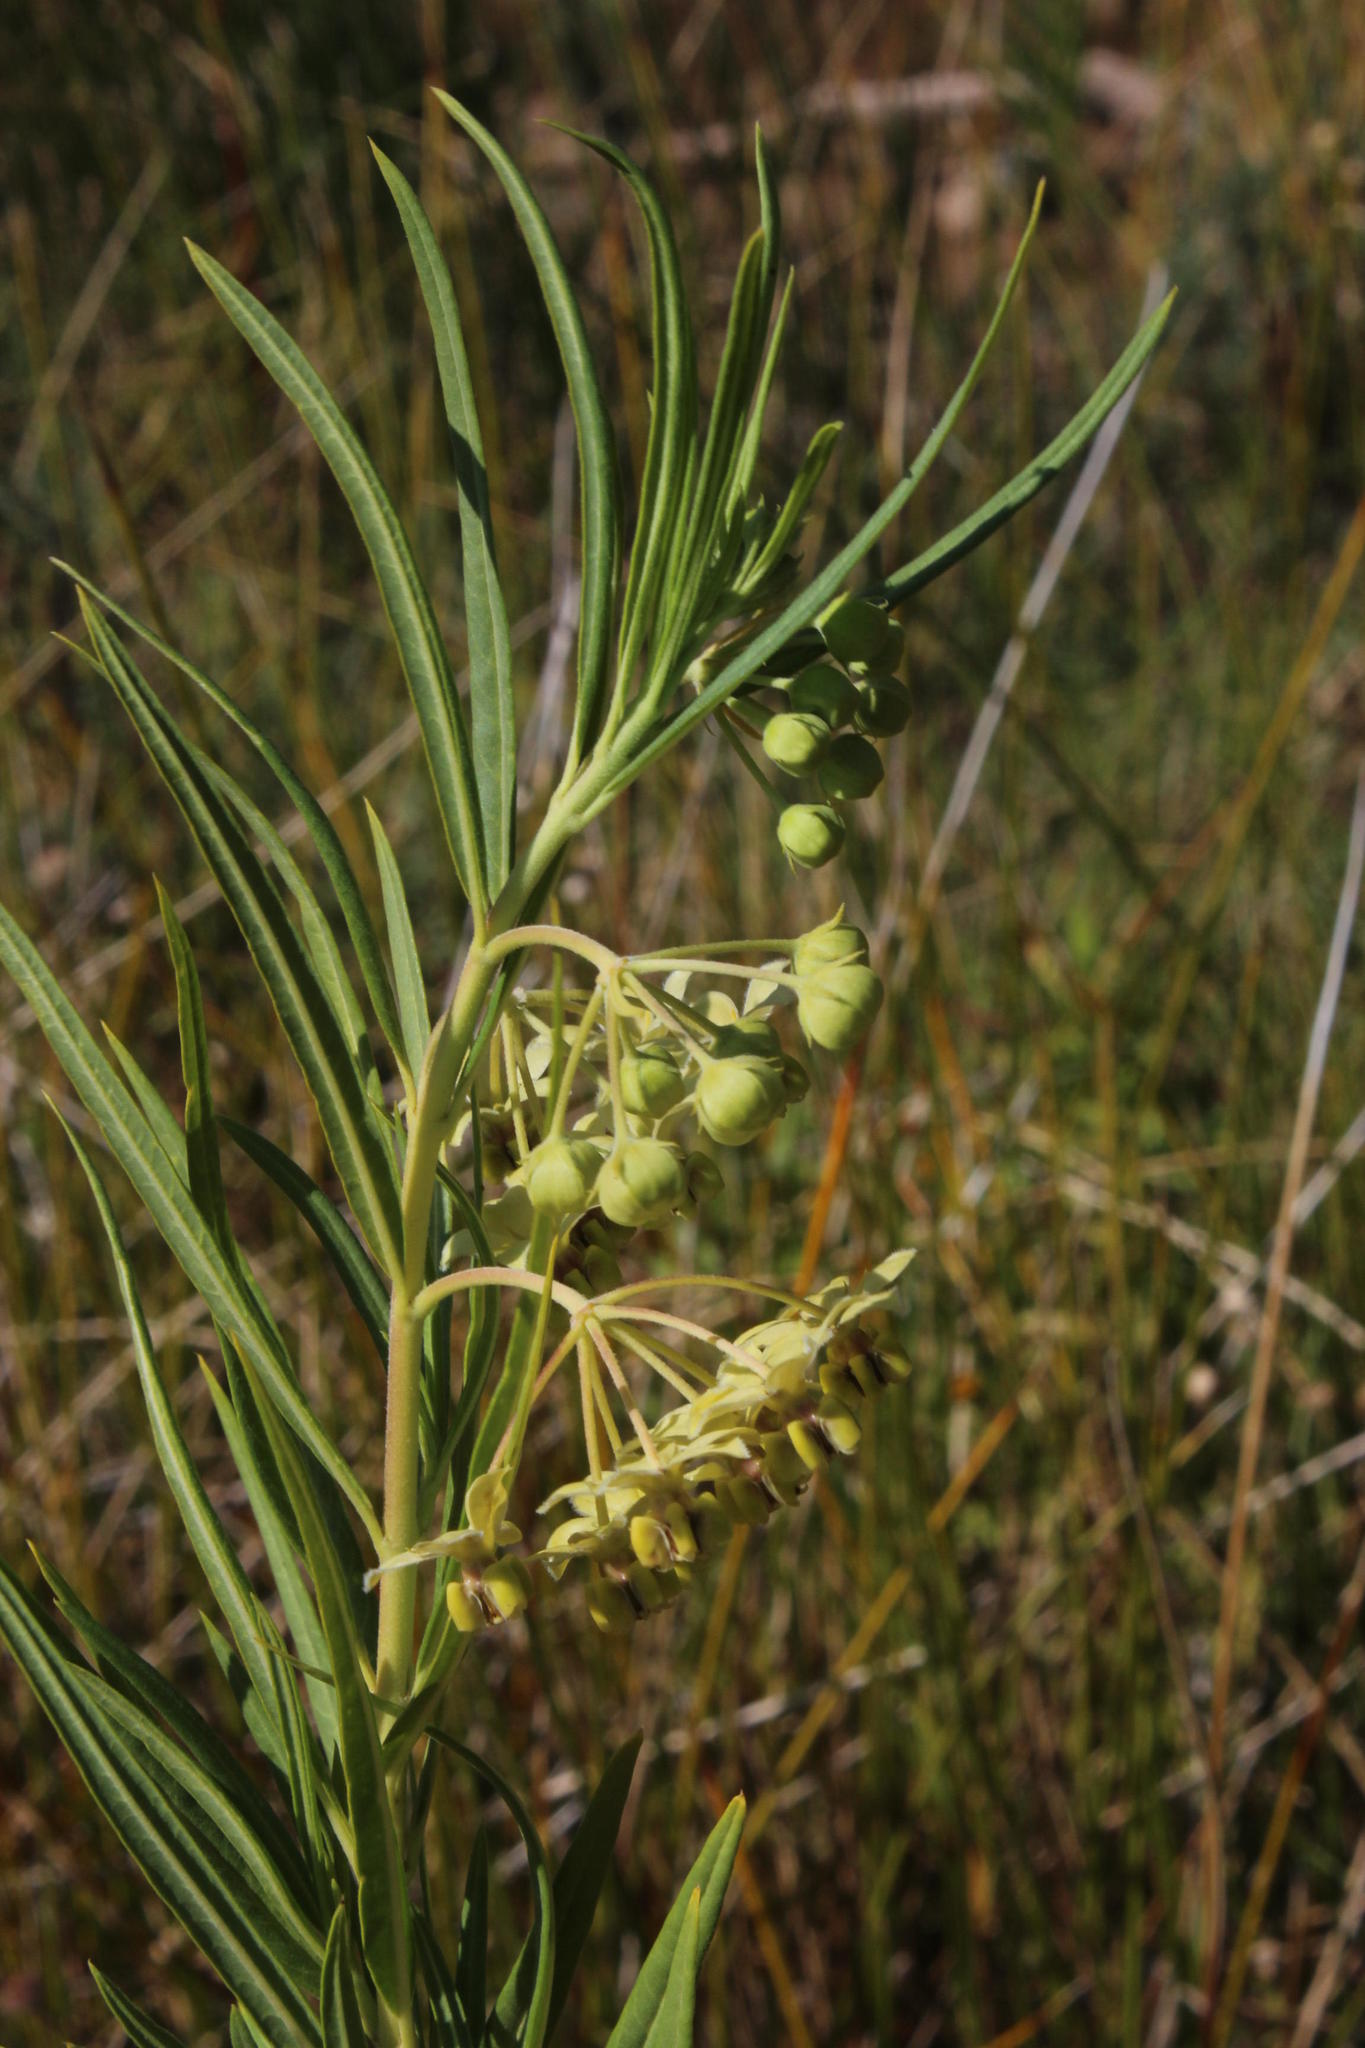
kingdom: Plantae
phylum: Tracheophyta
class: Magnoliopsida
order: Gentianales
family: Apocynaceae
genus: Gomphocarpus
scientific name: Gomphocarpus fruticosus
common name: Milkweed
